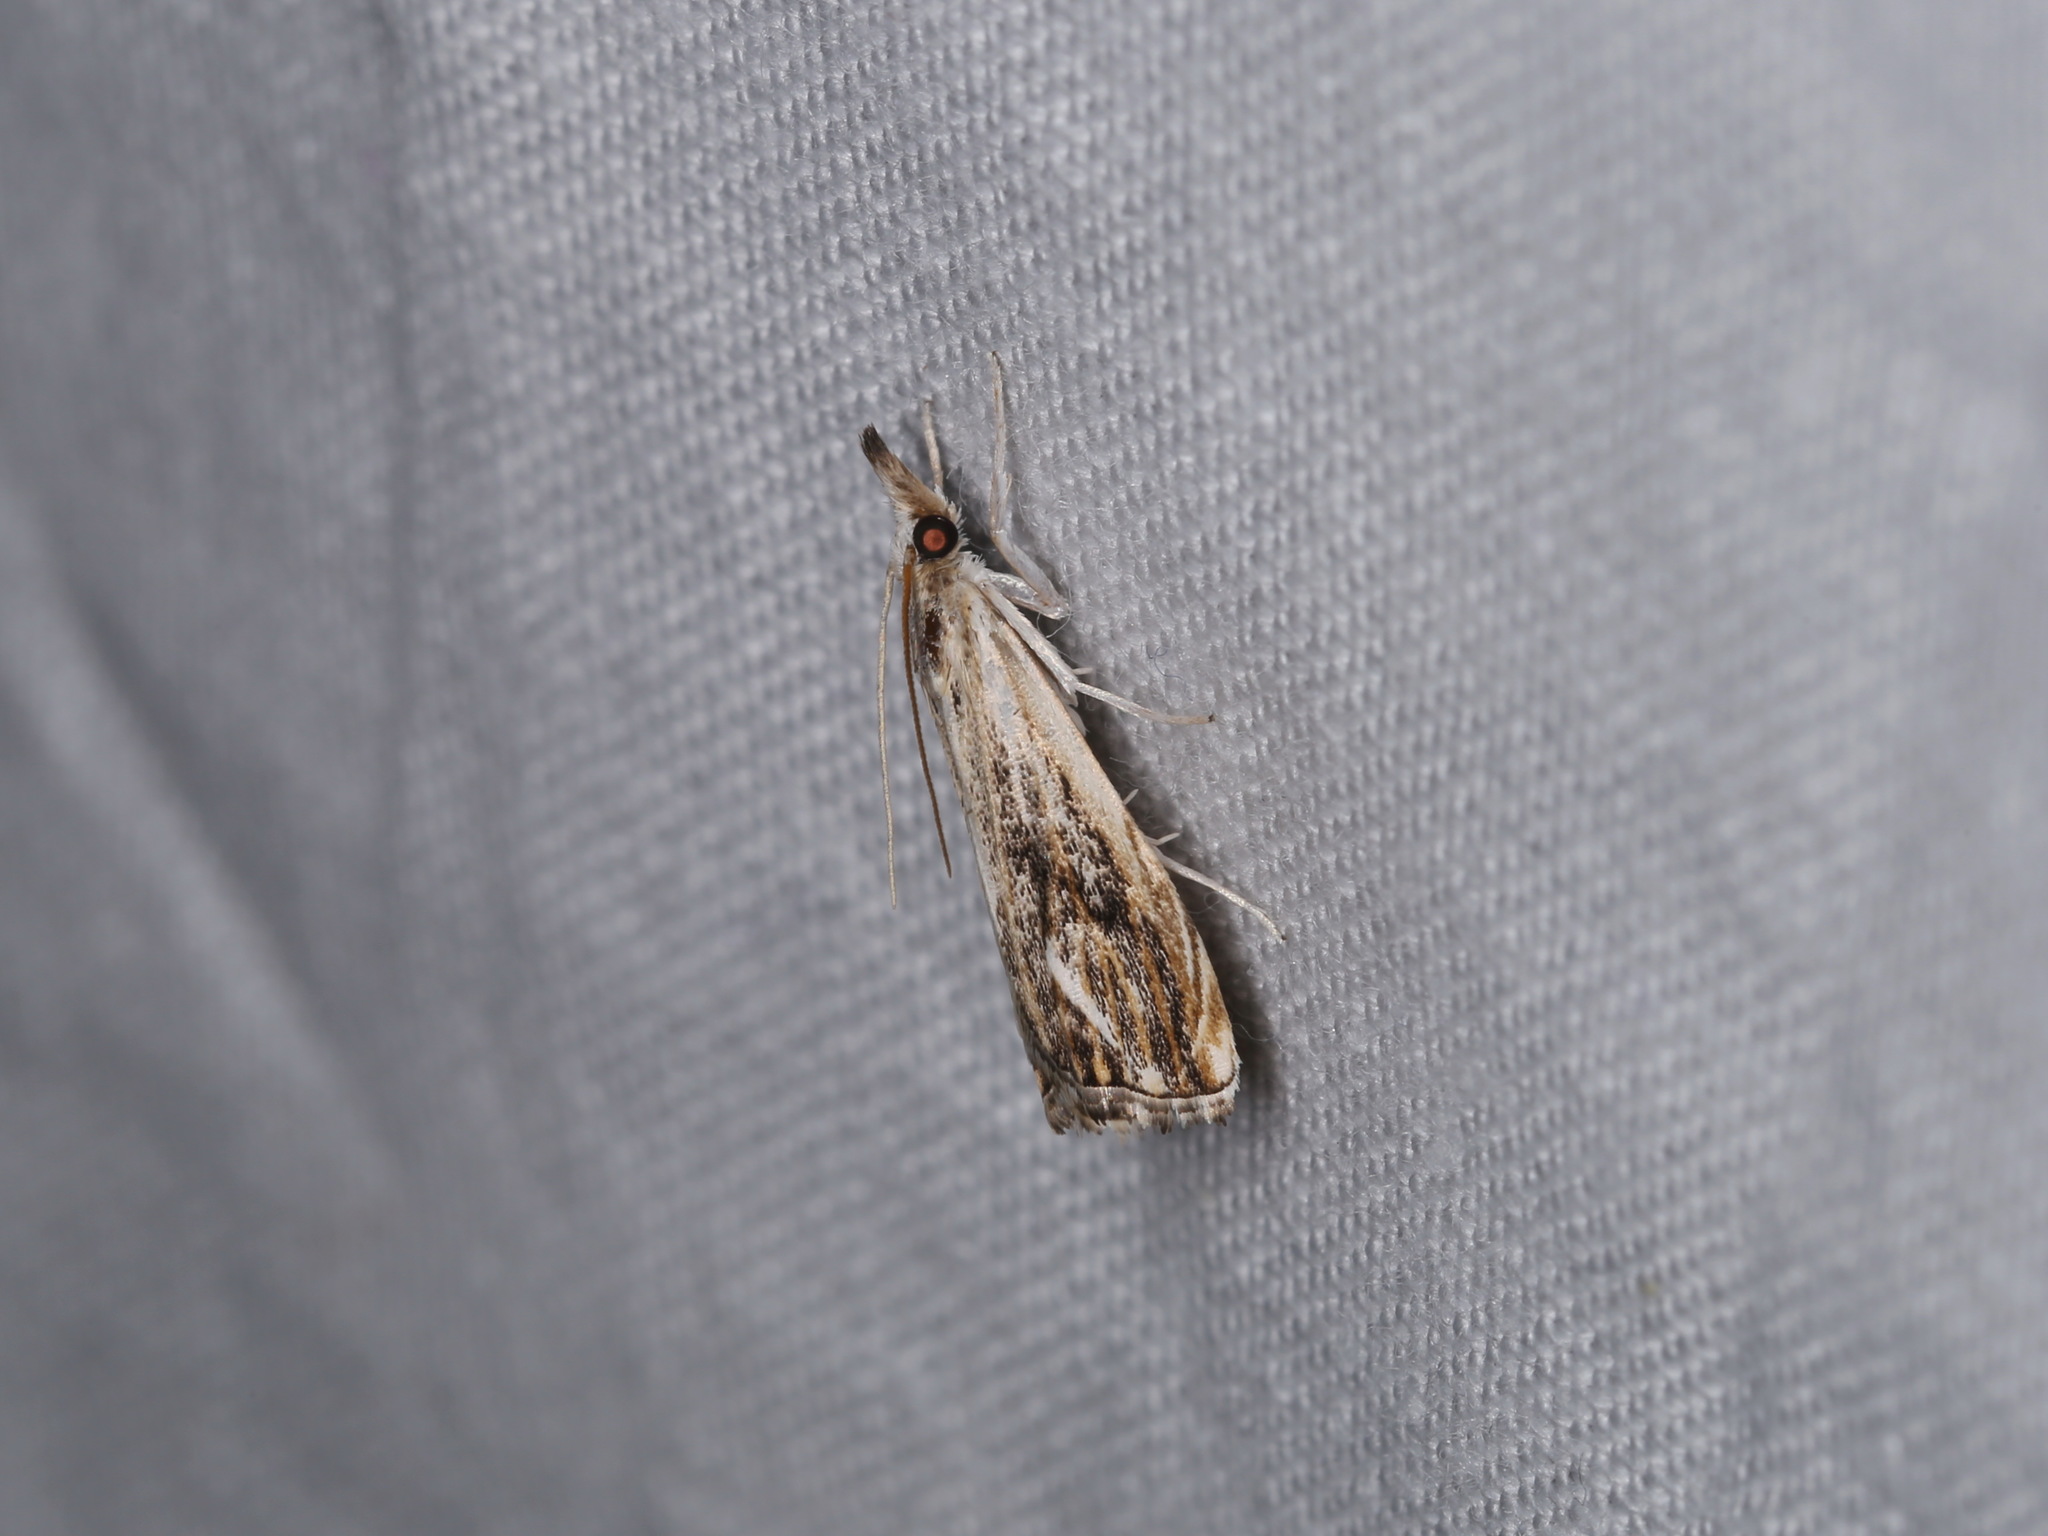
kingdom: Animalia
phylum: Arthropoda
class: Insecta
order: Lepidoptera
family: Crambidae
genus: Catoptria
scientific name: Catoptria falsella
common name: Chequered grass-veneer
